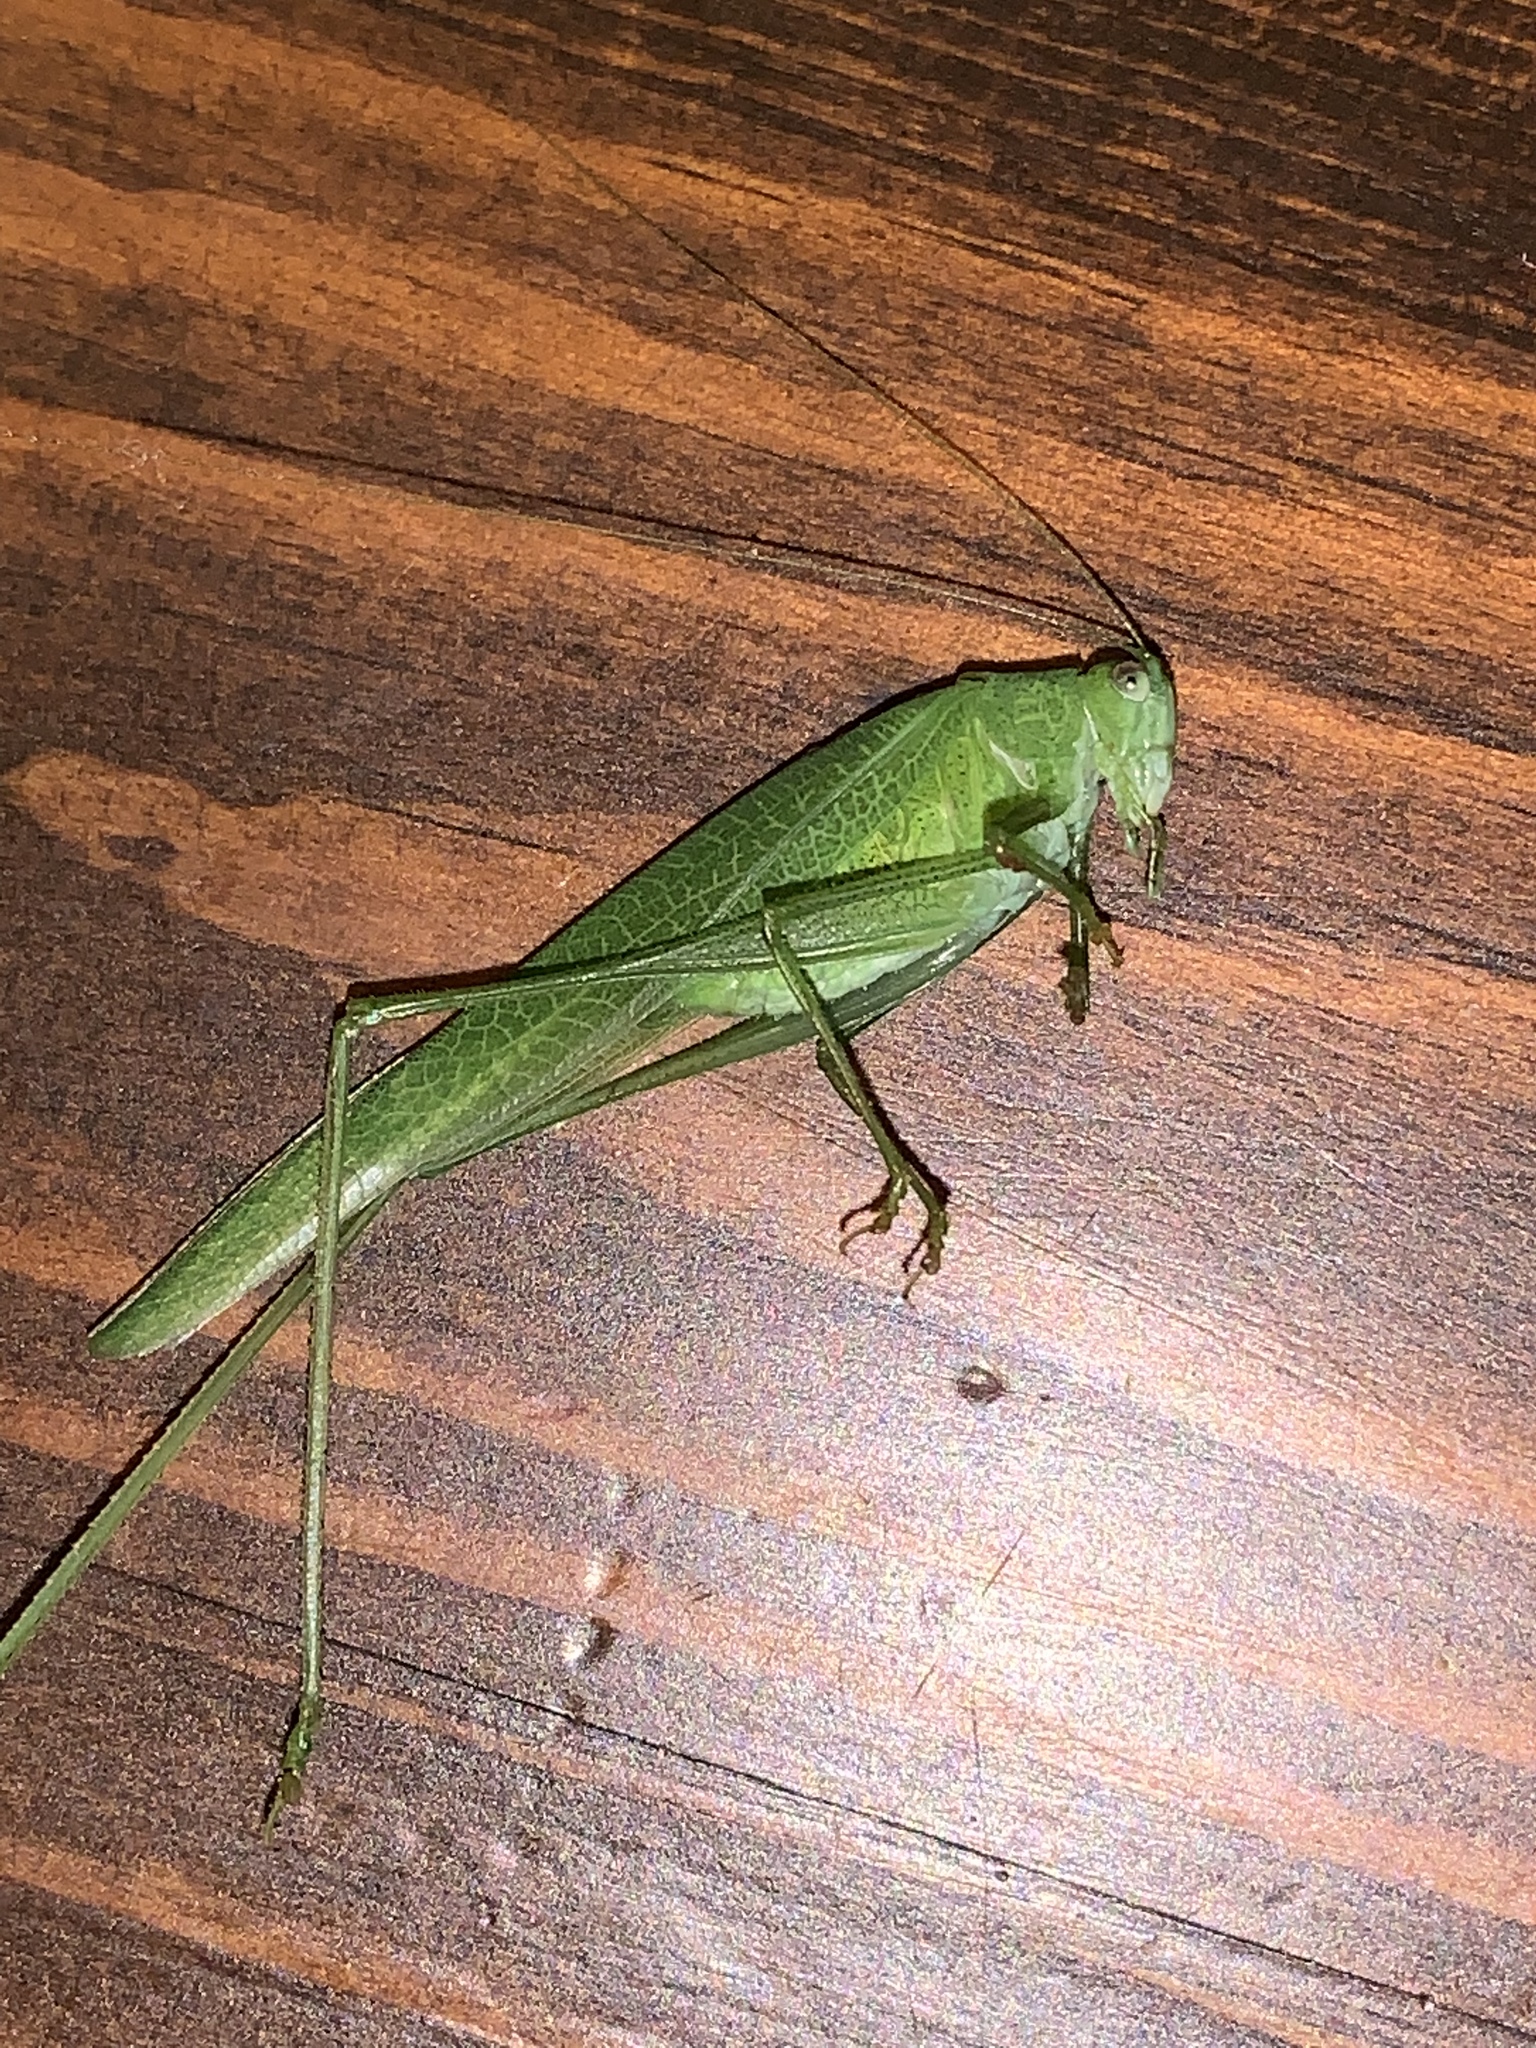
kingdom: Animalia
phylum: Arthropoda
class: Insecta
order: Orthoptera
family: Tettigoniidae
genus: Phaneroptera
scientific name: Phaneroptera nana
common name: Southern sickle bush-cricket
